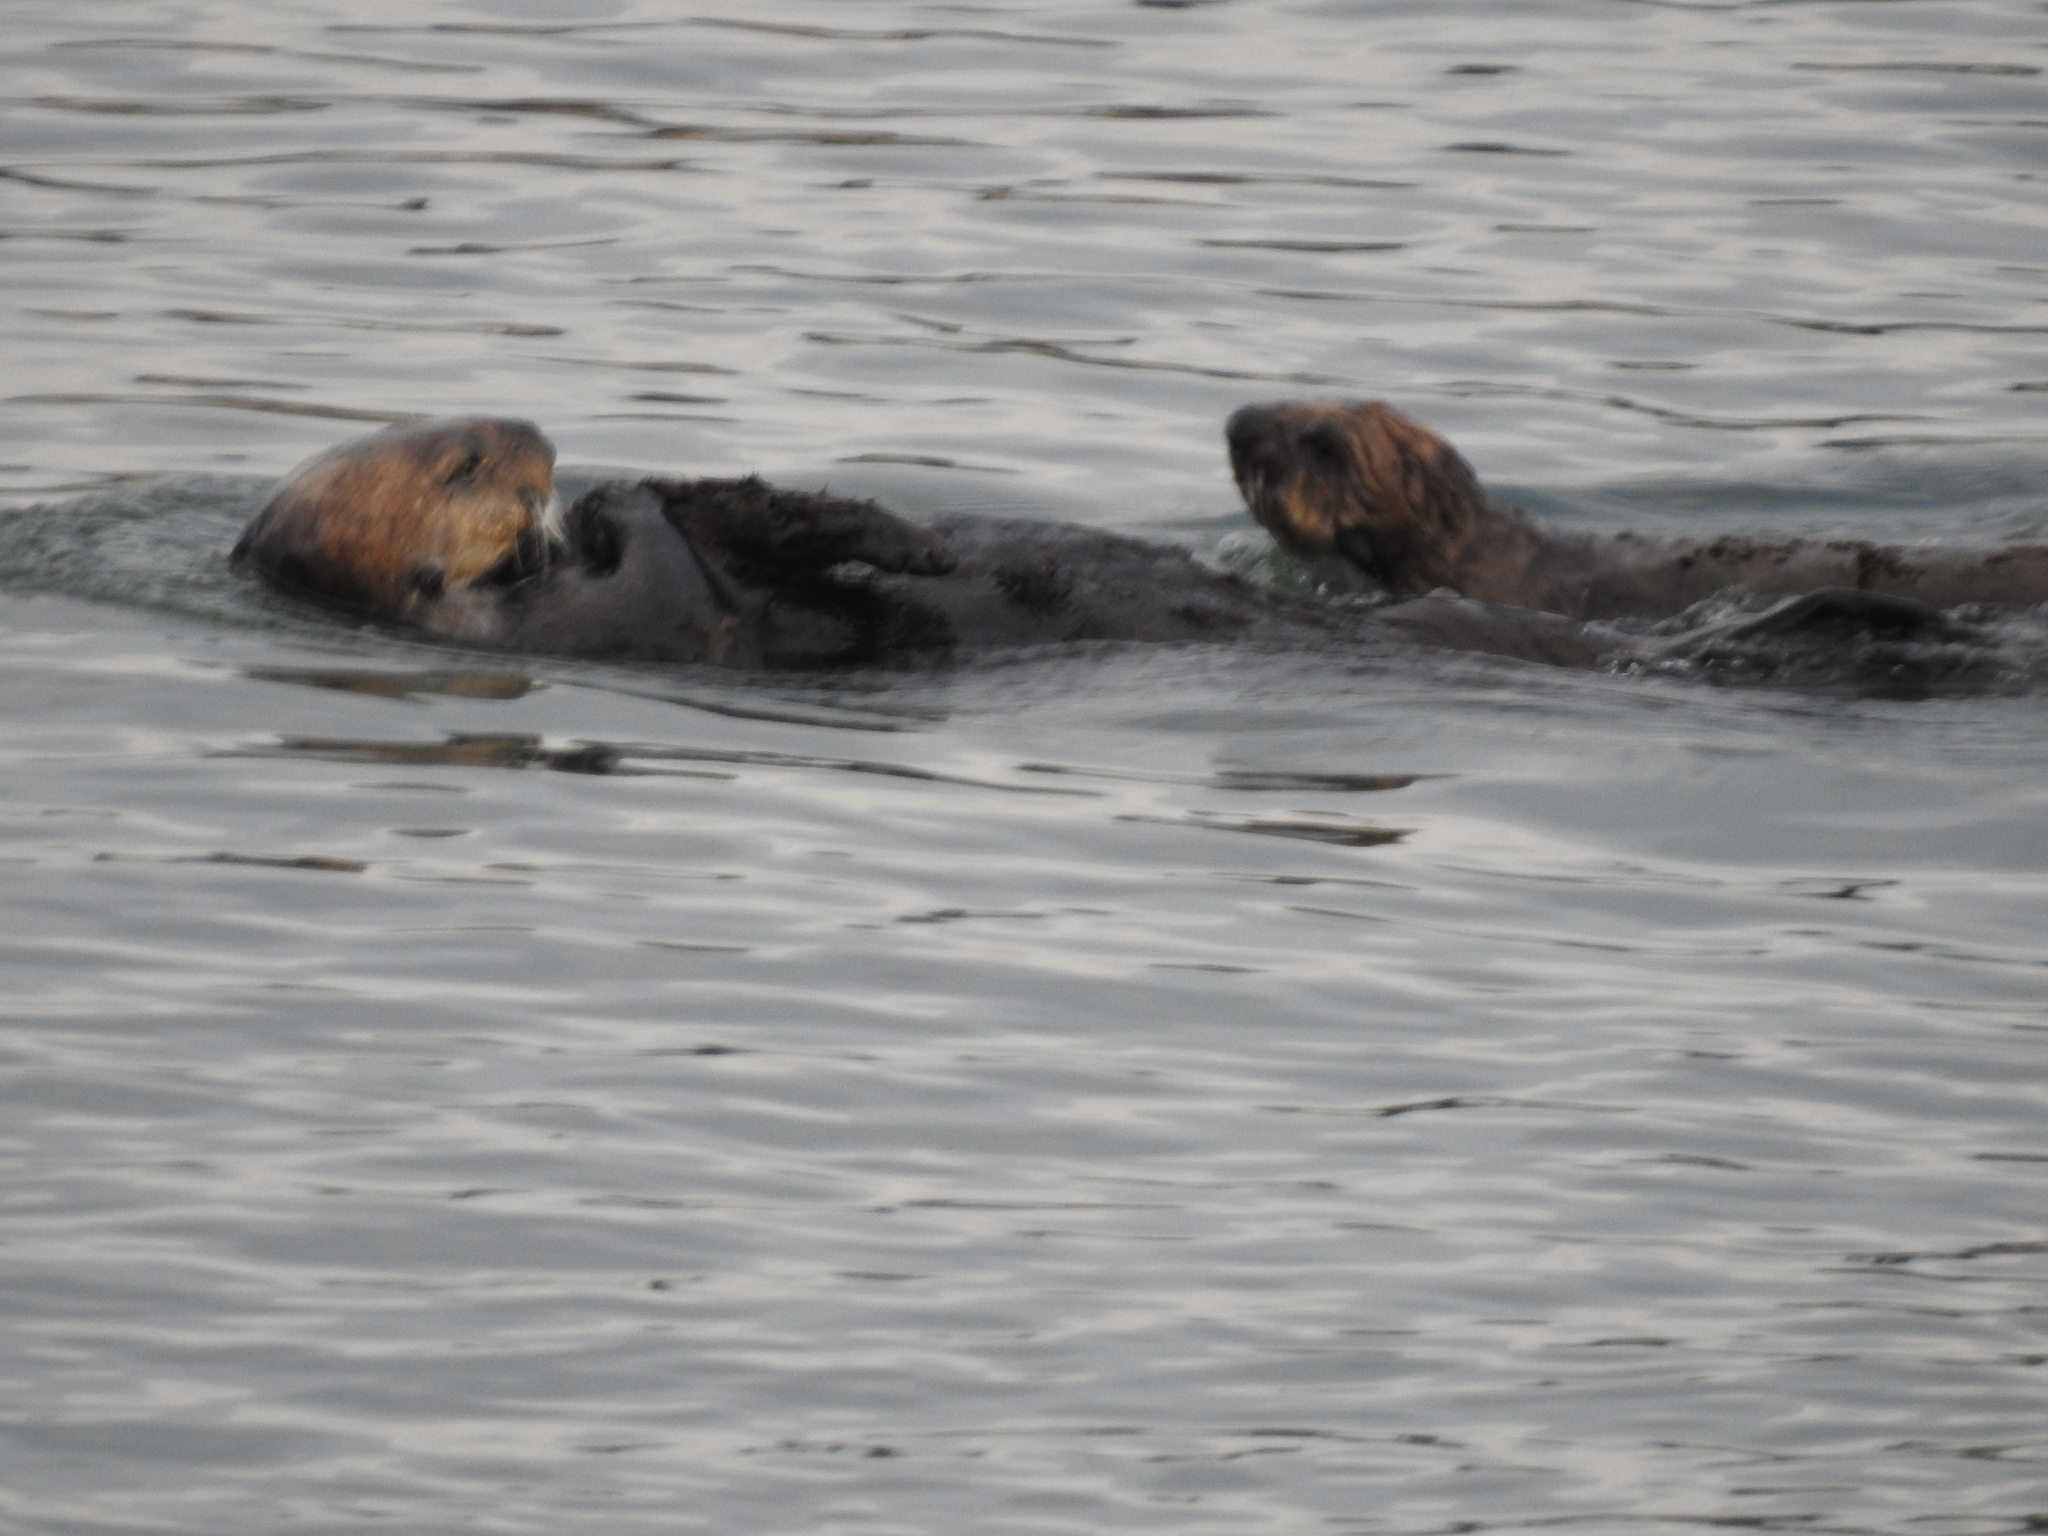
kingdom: Animalia
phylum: Chordata
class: Mammalia
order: Carnivora
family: Mustelidae
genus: Enhydra
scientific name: Enhydra lutris
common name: Sea otter
